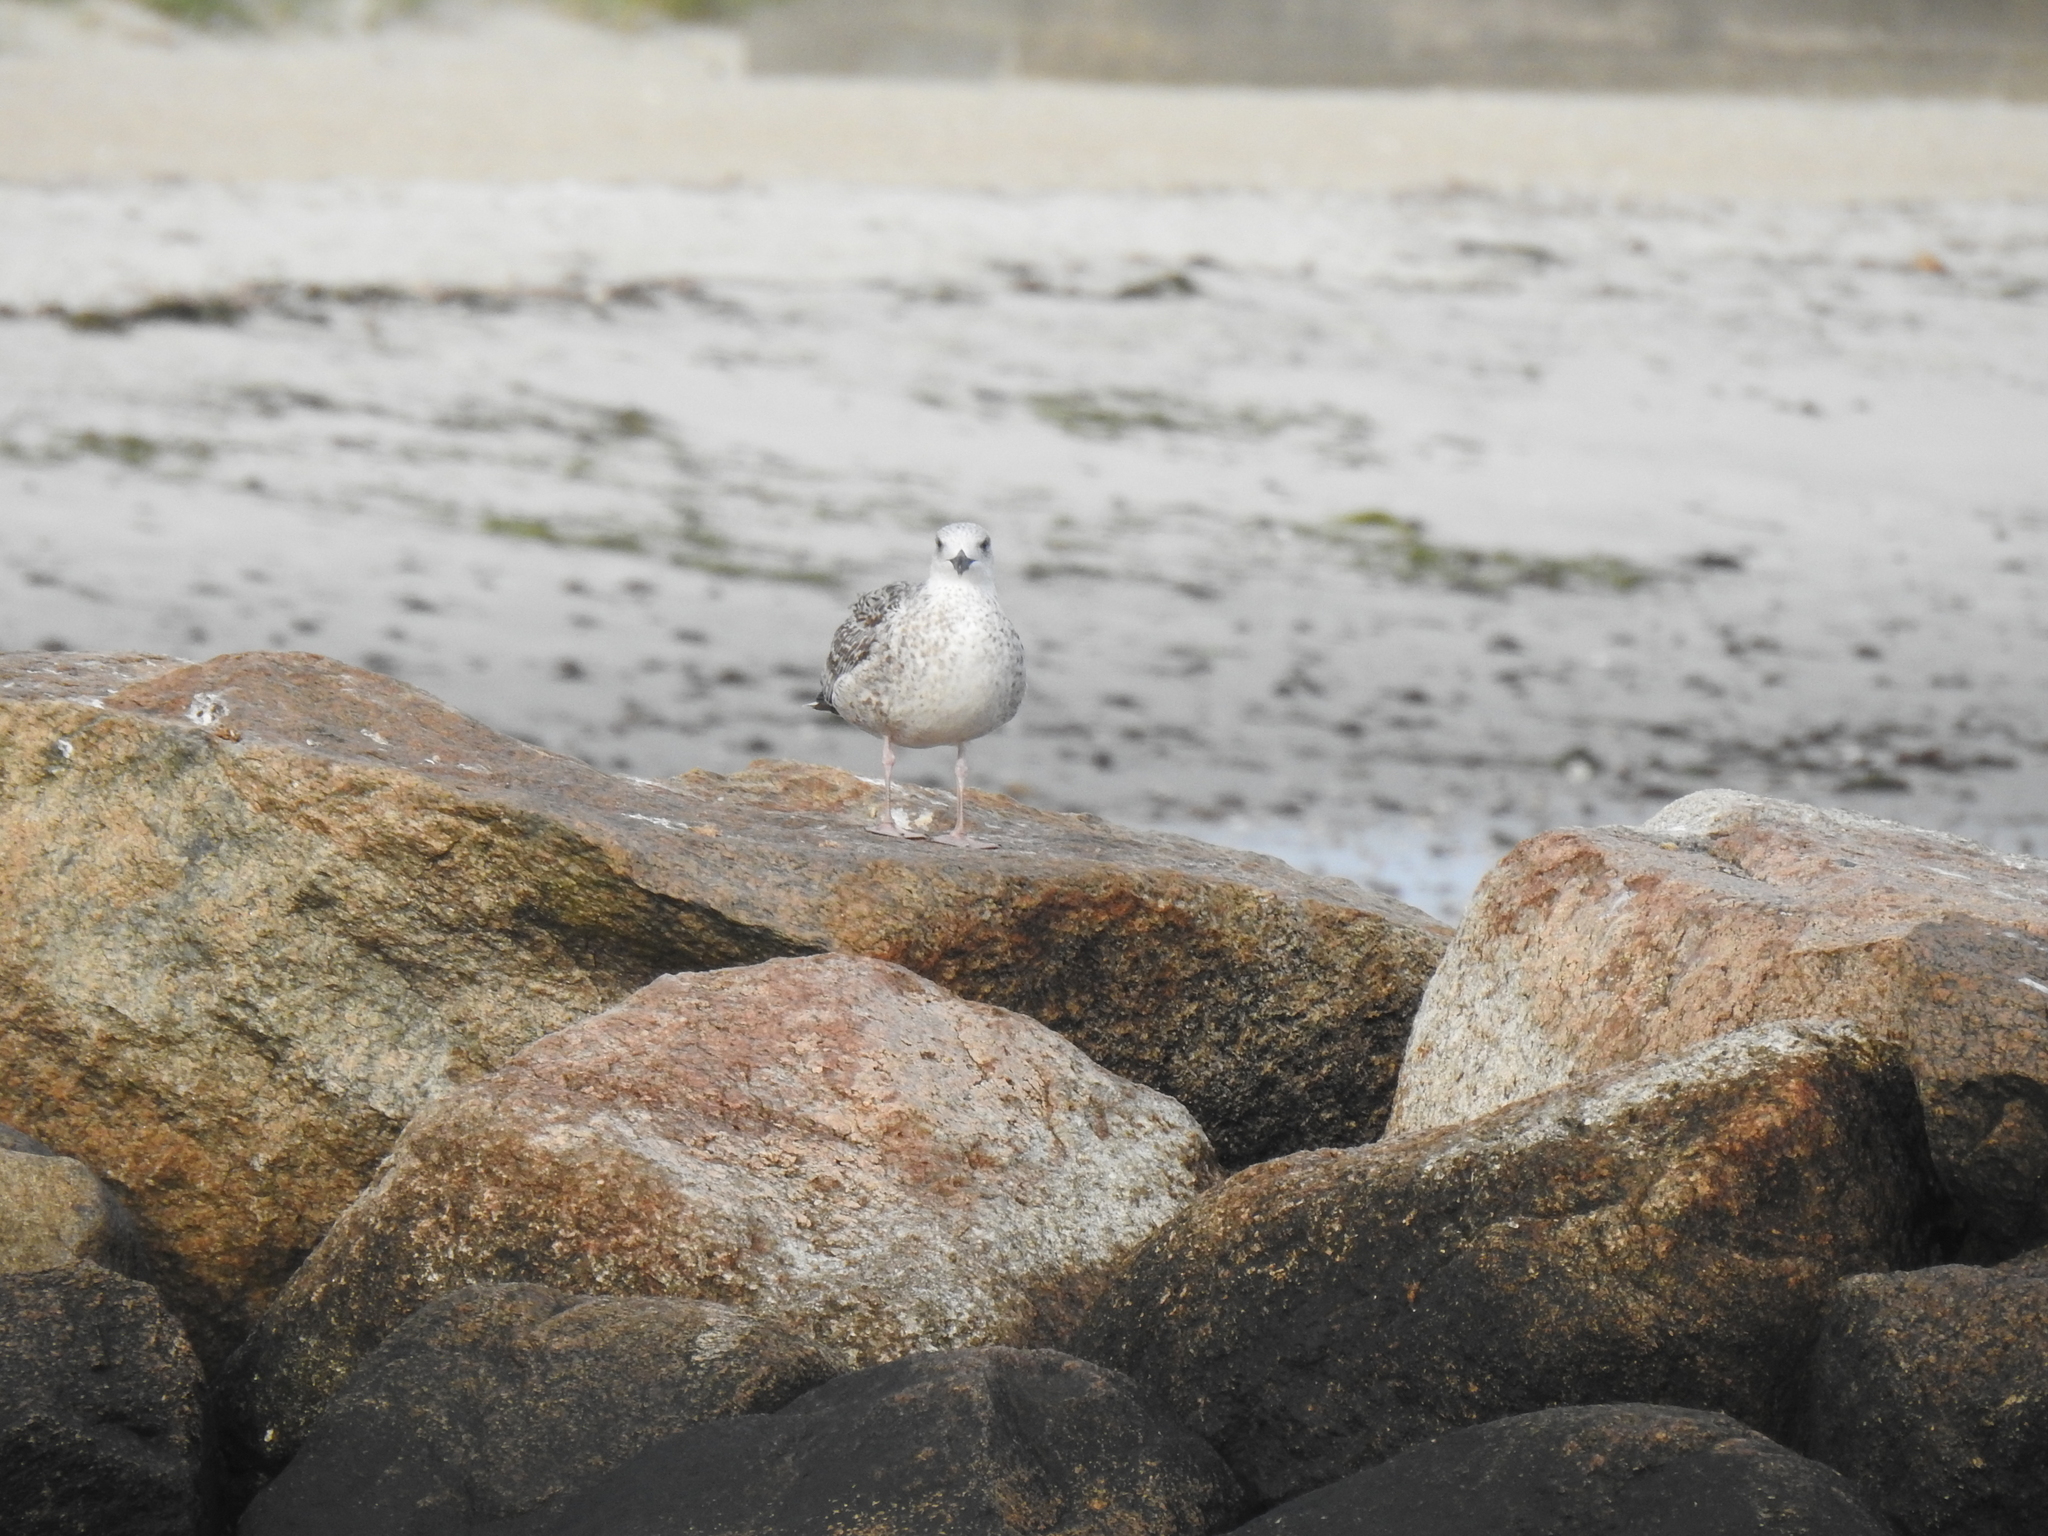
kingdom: Animalia
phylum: Chordata
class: Aves
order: Charadriiformes
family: Laridae
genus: Larus
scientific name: Larus marinus
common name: Great black-backed gull
